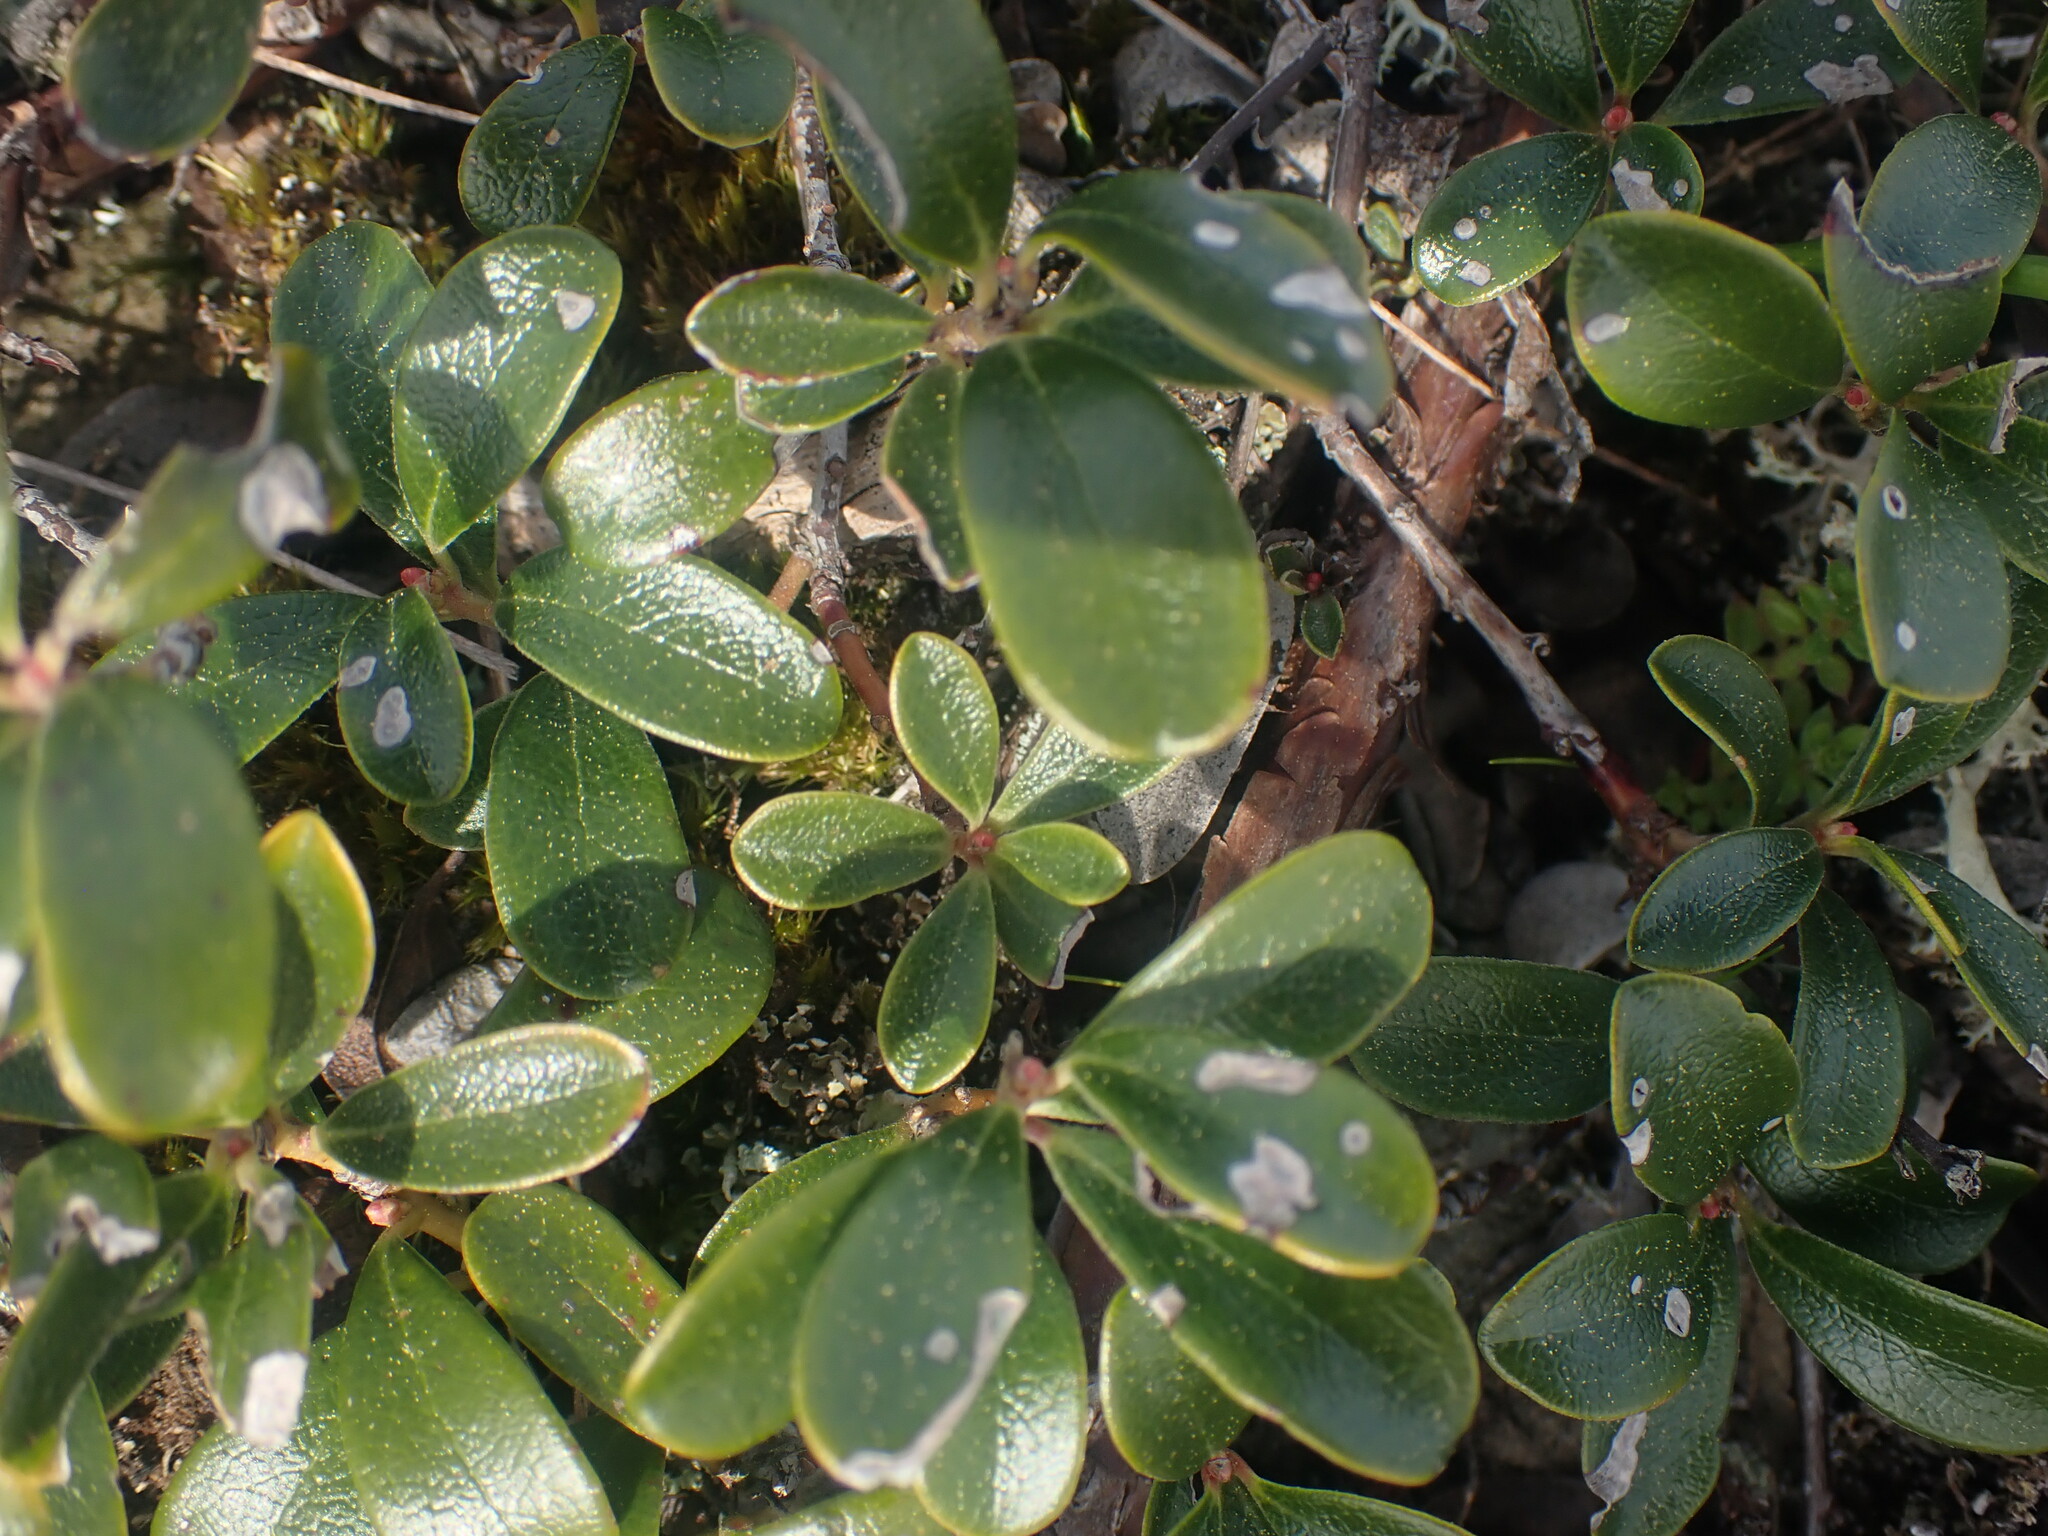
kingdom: Plantae
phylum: Tracheophyta
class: Magnoliopsida
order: Ericales
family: Ericaceae
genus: Arctostaphylos
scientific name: Arctostaphylos uva-ursi
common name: Bearberry
